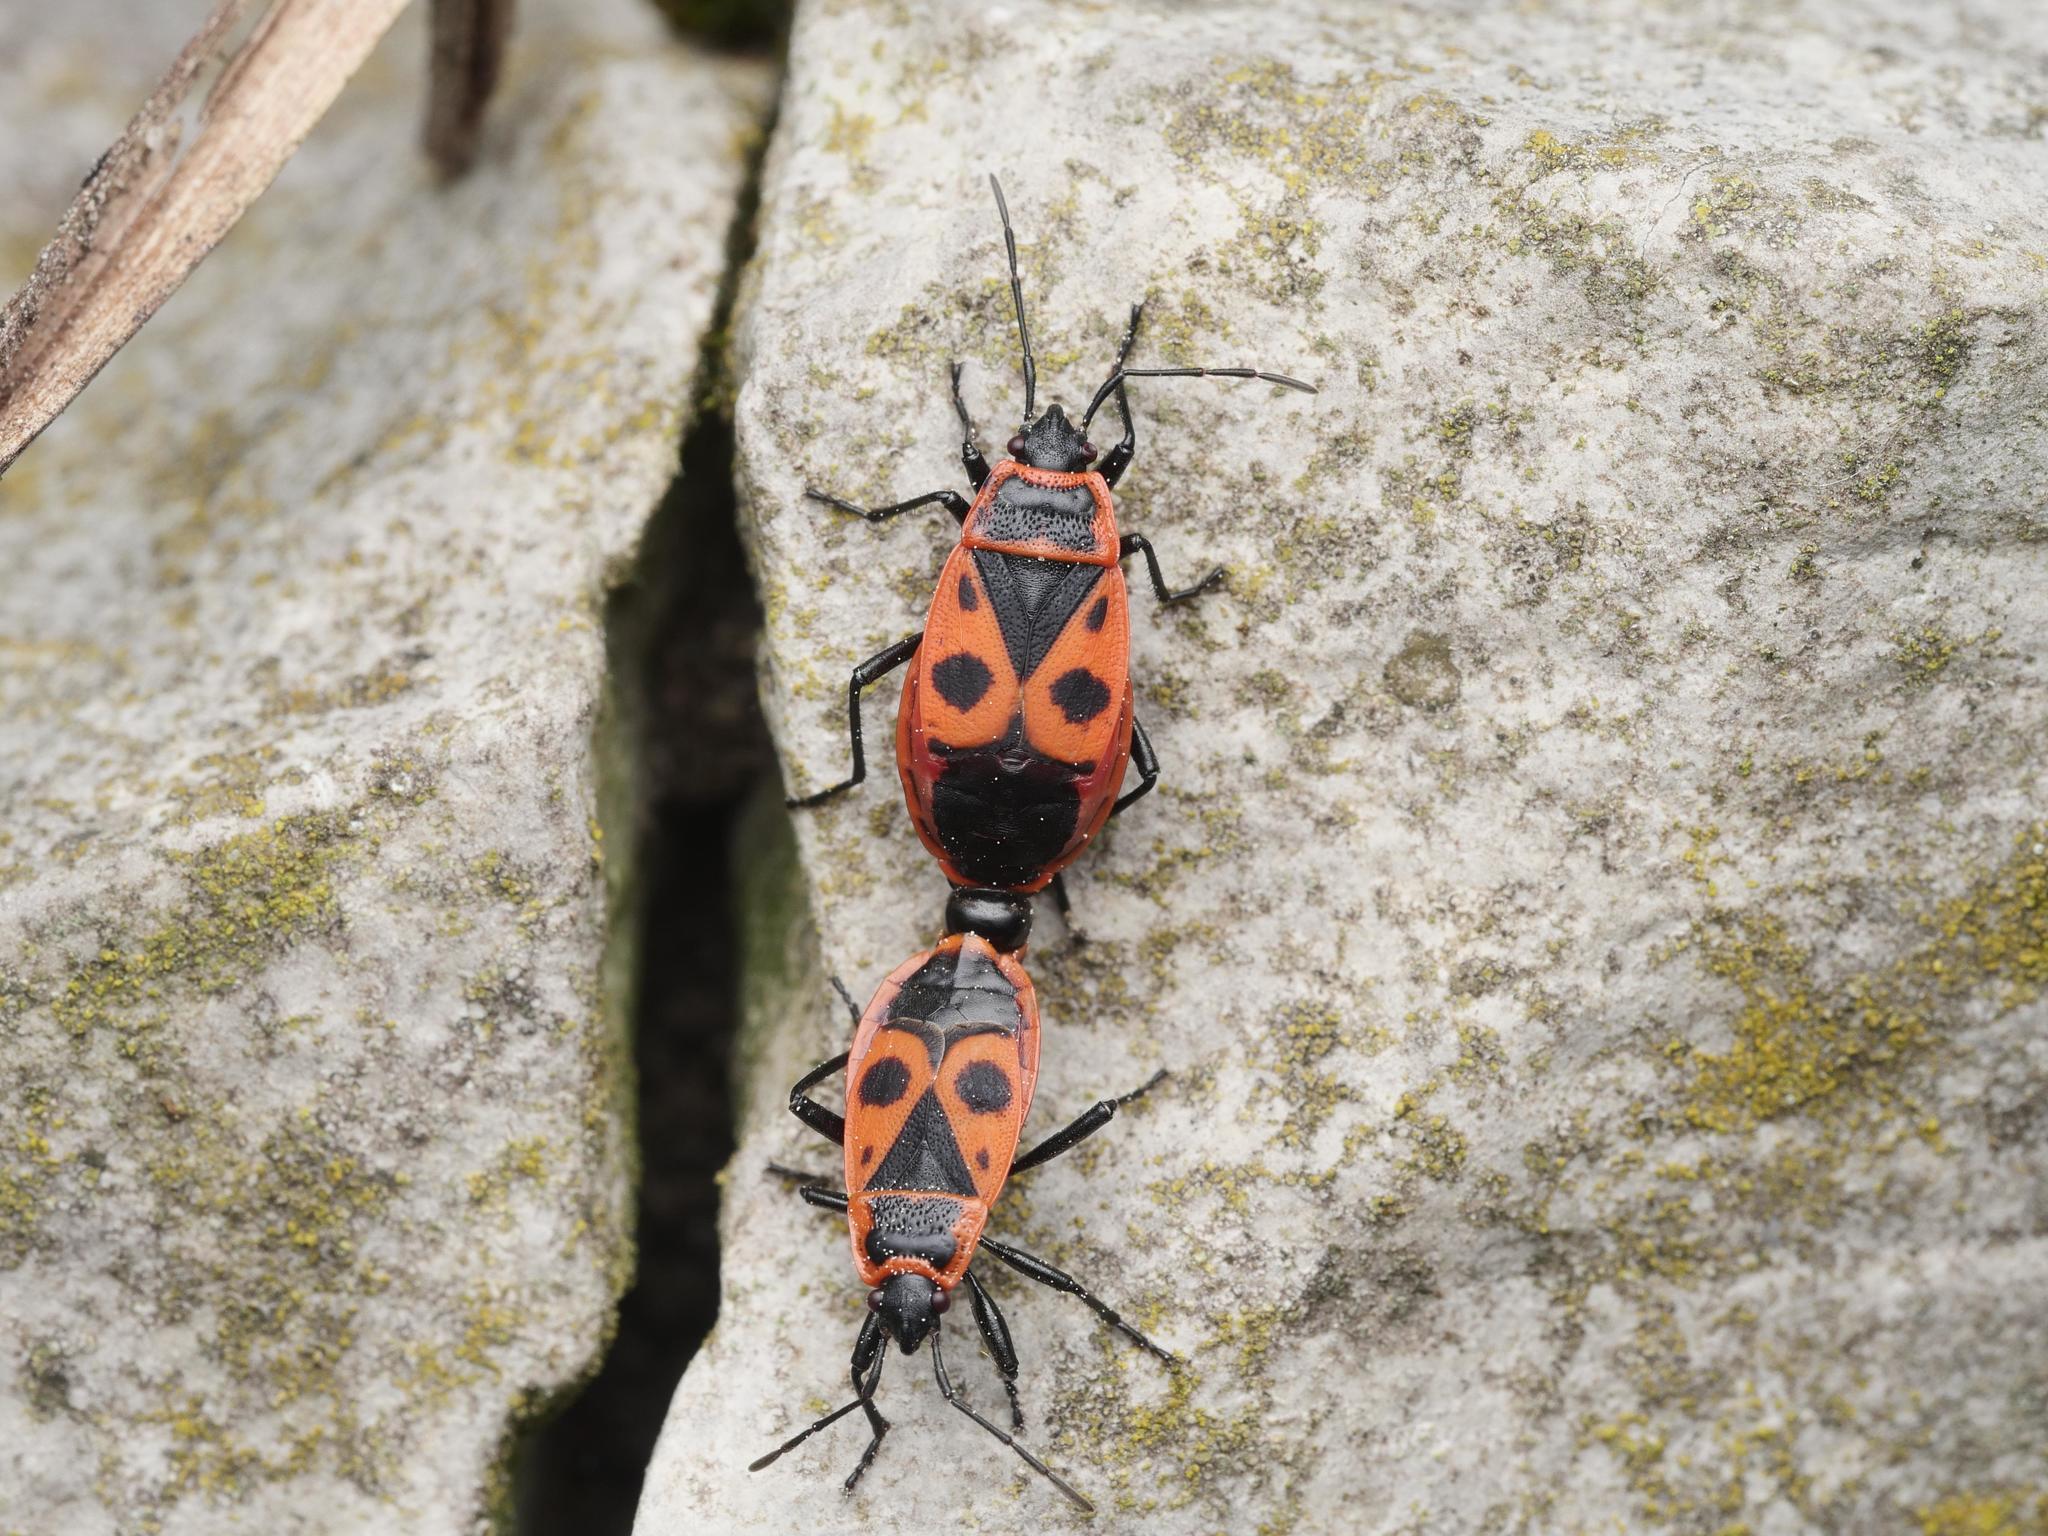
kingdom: Animalia
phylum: Arthropoda
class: Insecta
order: Hemiptera
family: Pyrrhocoridae
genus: Pyrrhocoris
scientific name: Pyrrhocoris apterus
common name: Firebug
